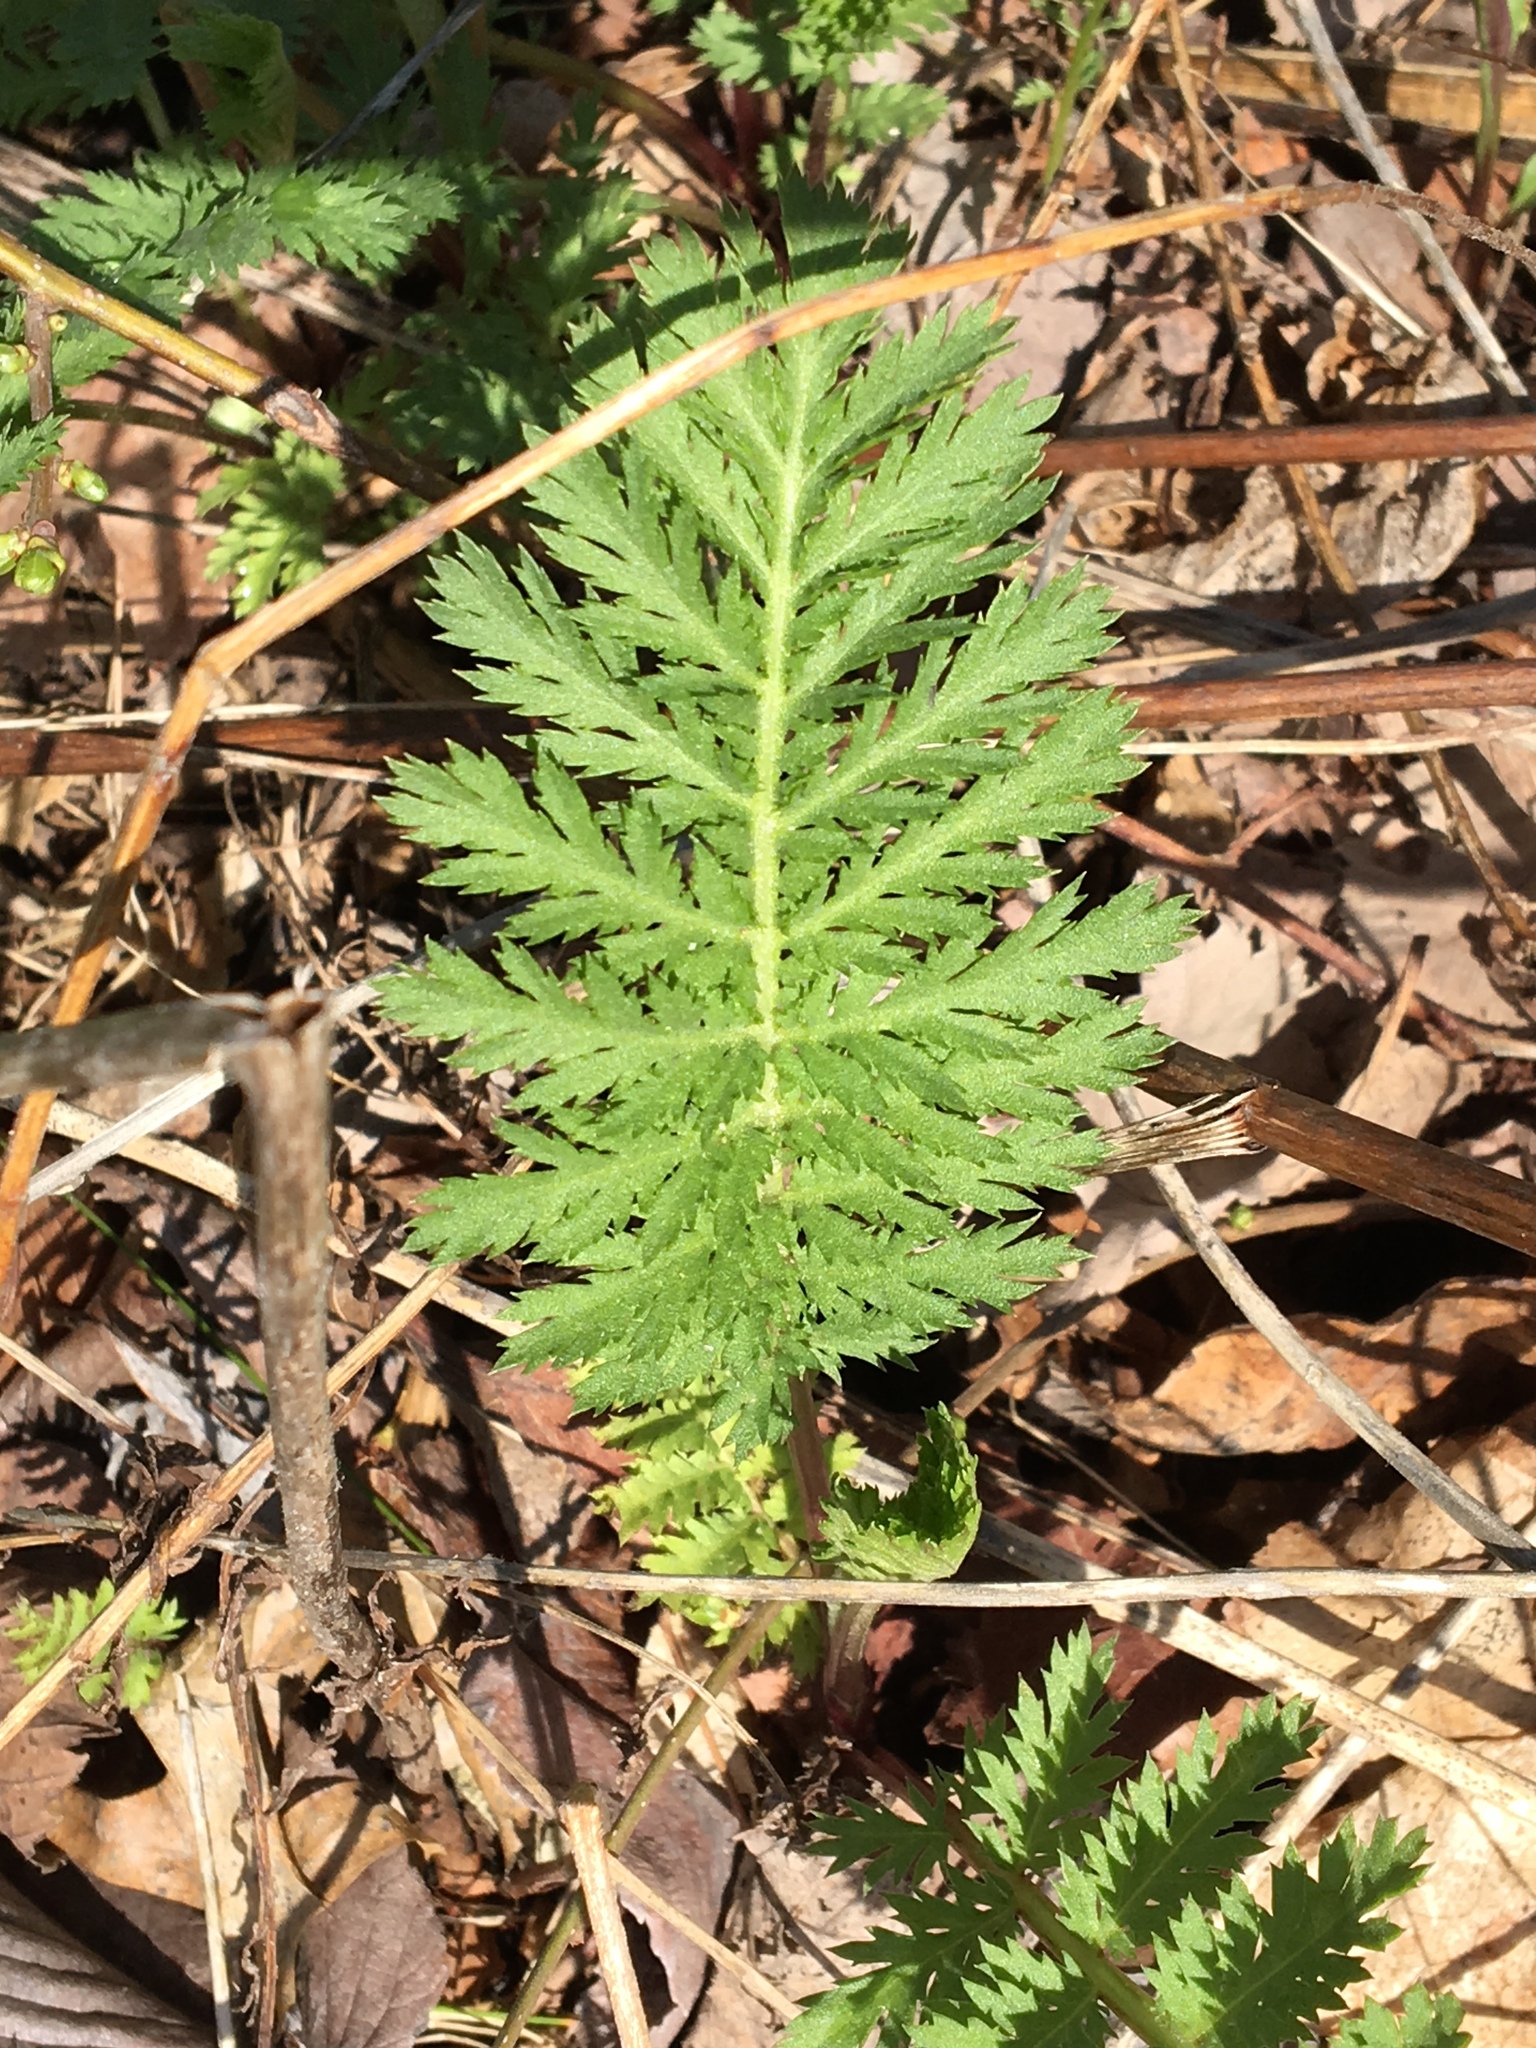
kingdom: Plantae
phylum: Tracheophyta
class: Magnoliopsida
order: Asterales
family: Asteraceae
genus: Tanacetum
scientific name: Tanacetum vulgare
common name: Common tansy
